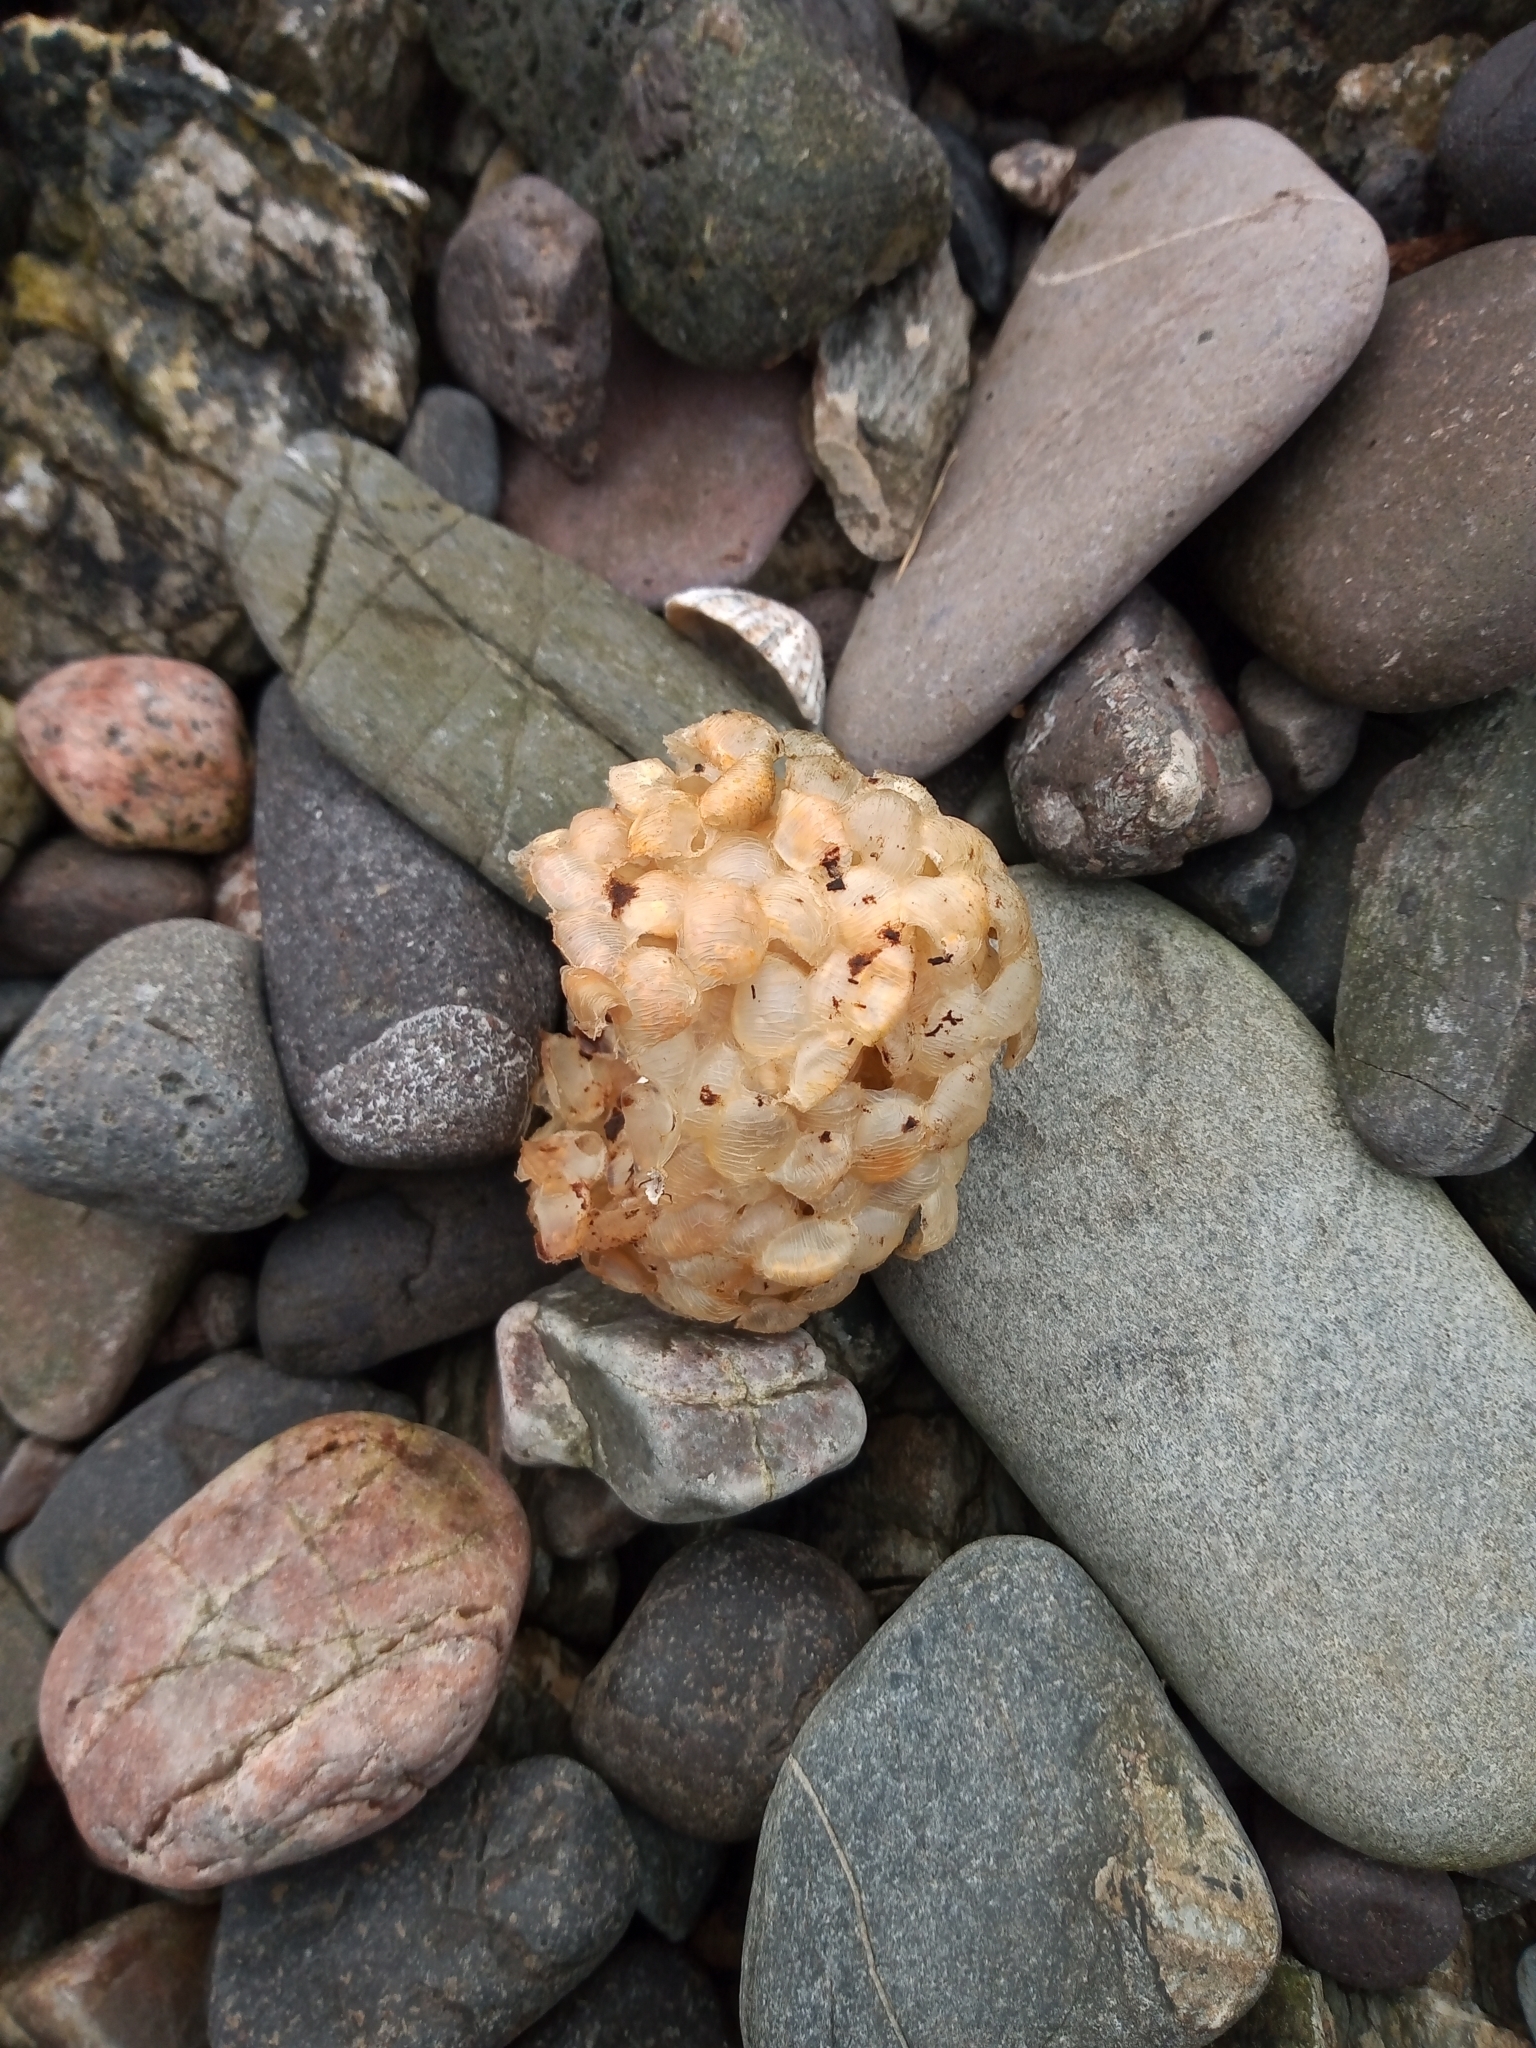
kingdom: Animalia
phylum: Mollusca
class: Gastropoda
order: Neogastropoda
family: Buccinidae
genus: Buccinum
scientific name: Buccinum undatum
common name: Common whelk
